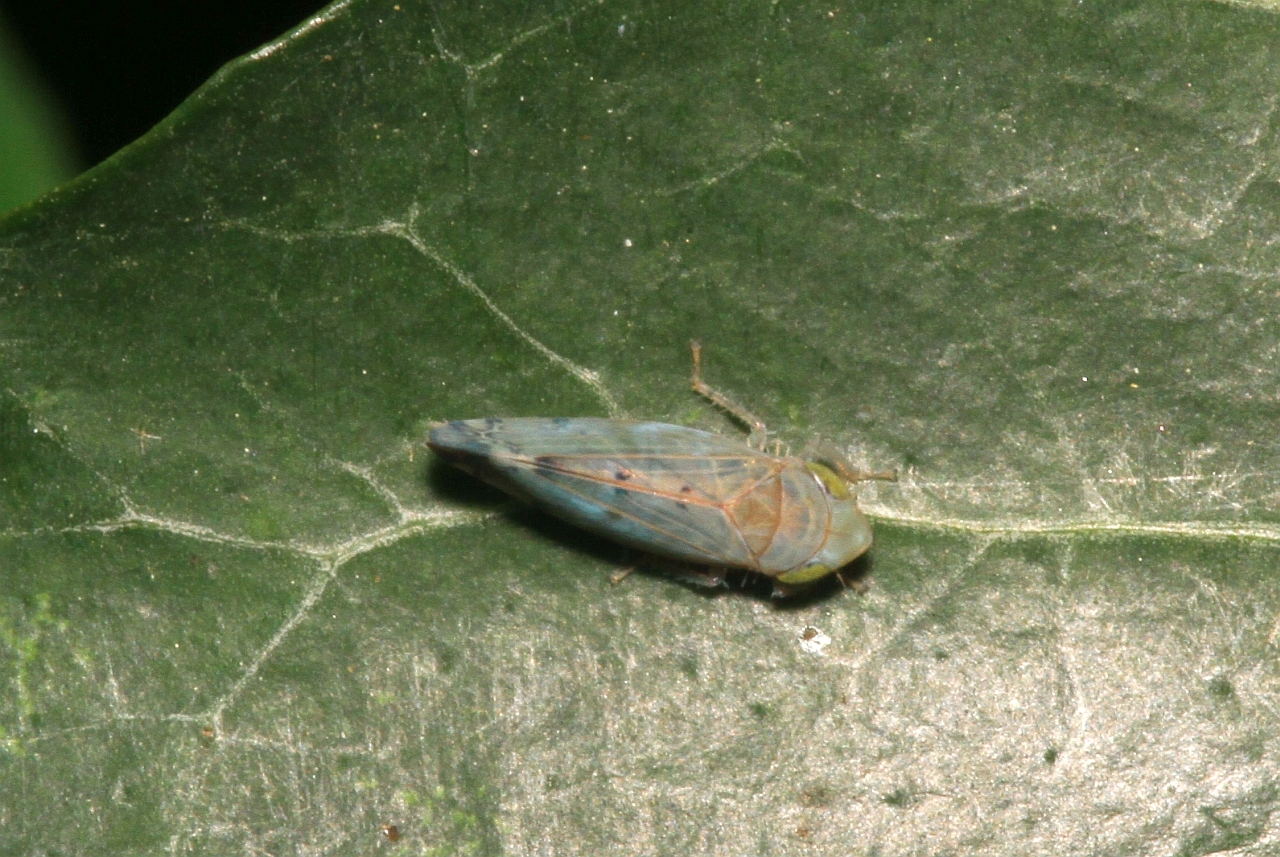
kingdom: Animalia
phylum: Arthropoda
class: Insecta
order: Hemiptera
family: Cicadellidae
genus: Synophropsis
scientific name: Synophropsis lauri
